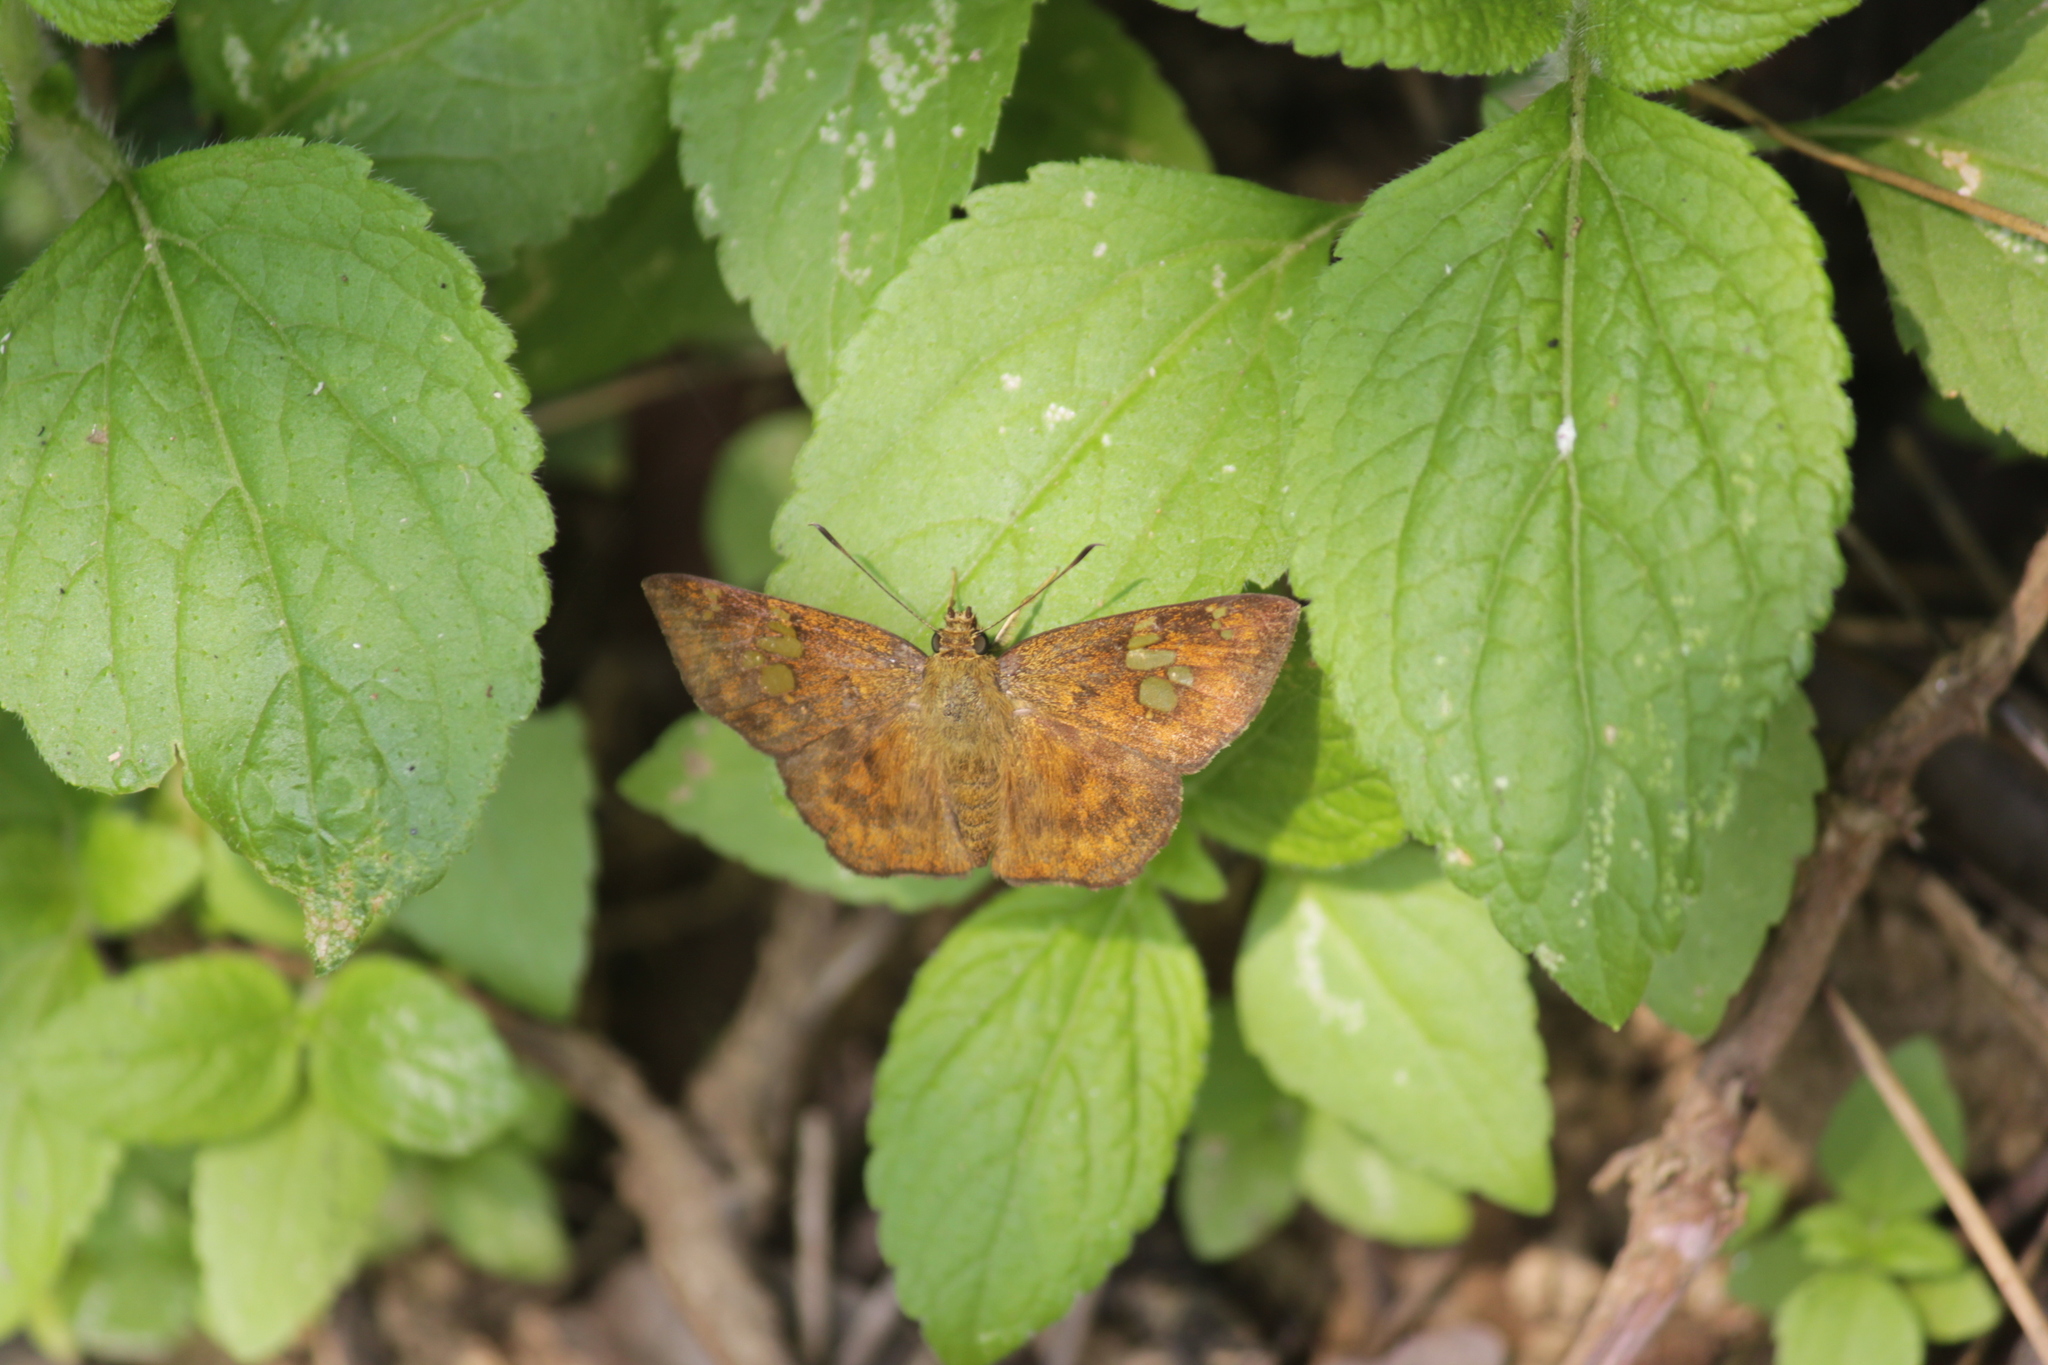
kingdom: Animalia
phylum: Arthropoda
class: Insecta
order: Lepidoptera
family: Hesperiidae
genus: Pseudocoladenia
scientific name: Pseudocoladenia dan
